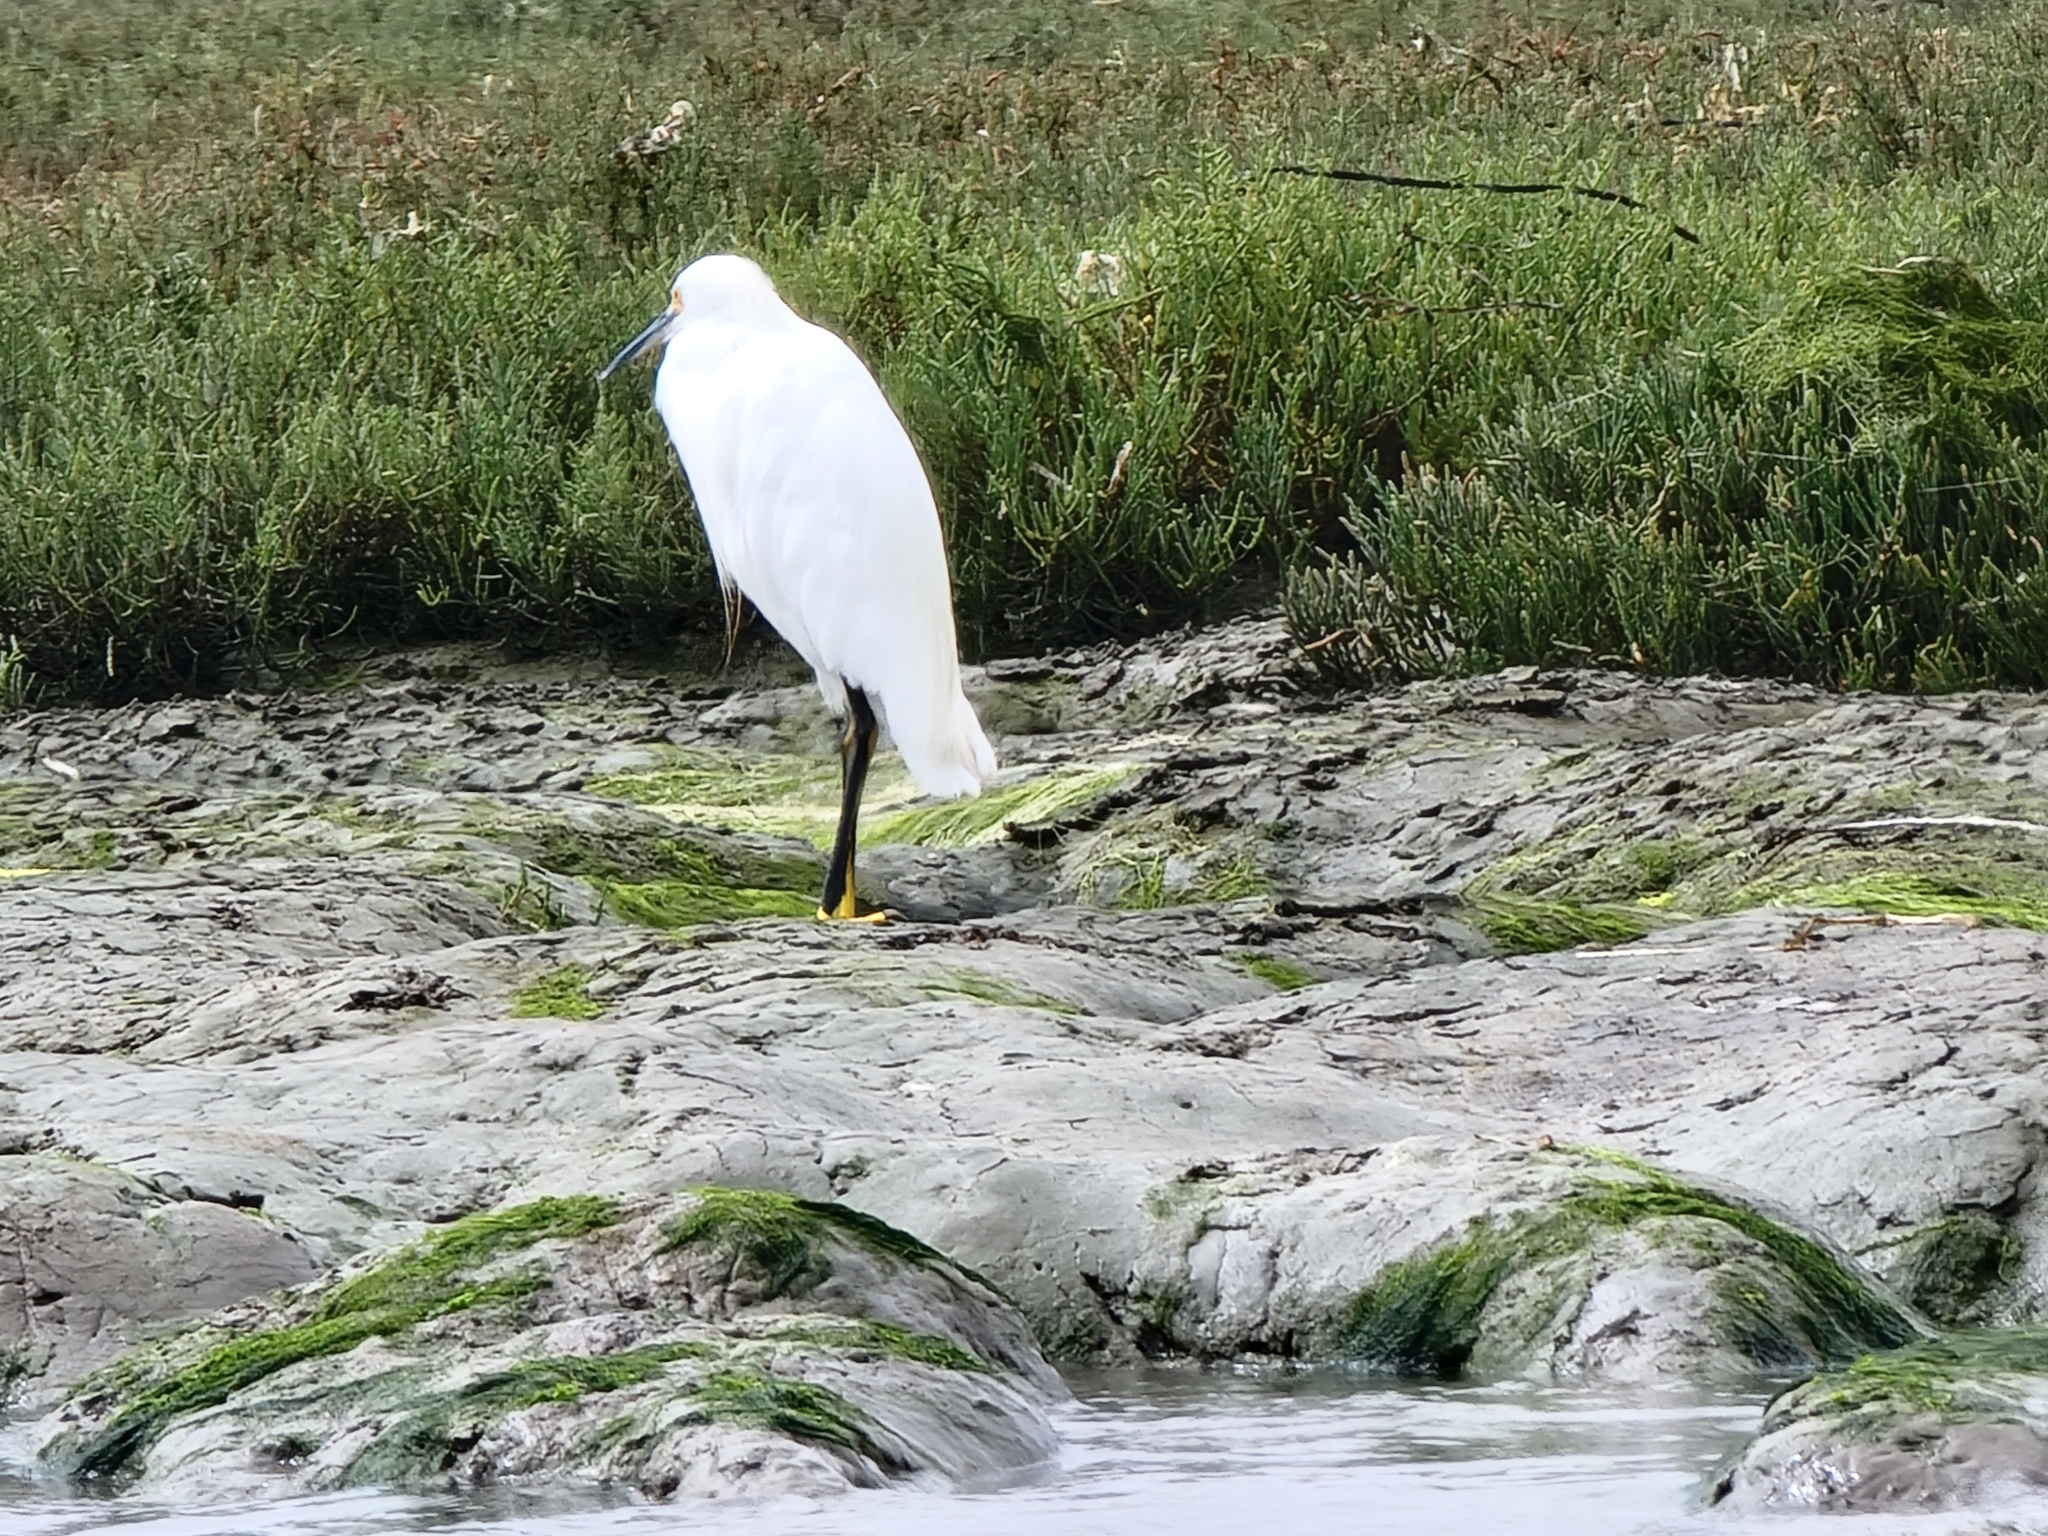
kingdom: Animalia
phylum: Chordata
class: Aves
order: Pelecaniformes
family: Ardeidae
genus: Egretta
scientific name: Egretta thula
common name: Snowy egret
